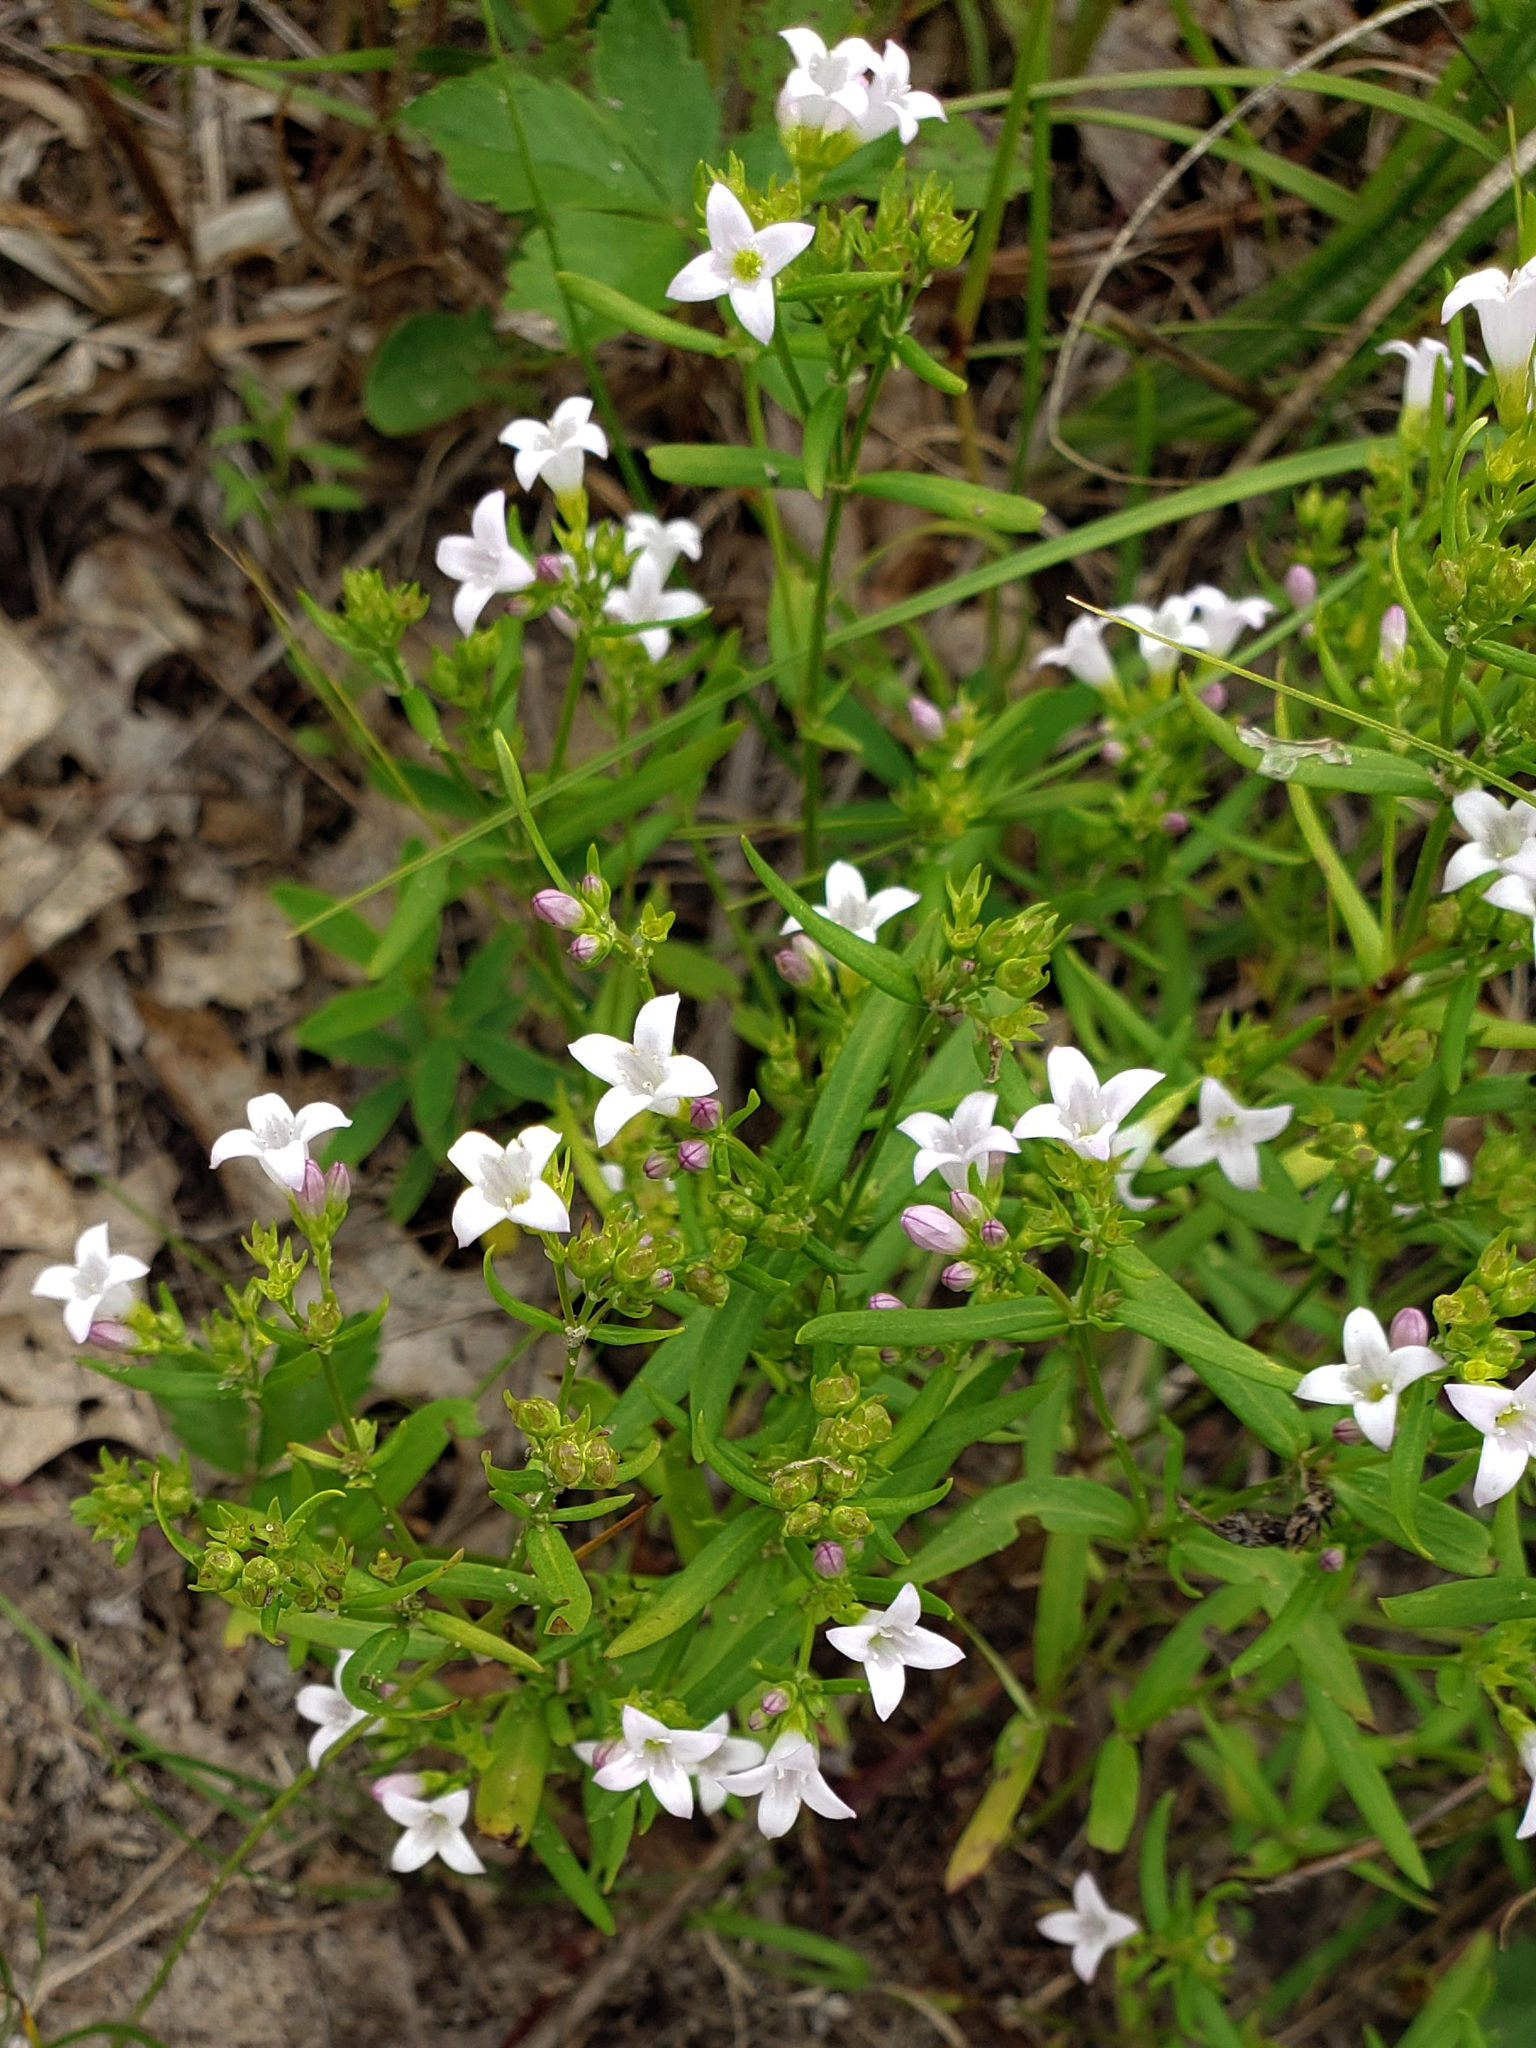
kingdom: Plantae
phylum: Tracheophyta
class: Magnoliopsida
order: Gentianales
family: Rubiaceae
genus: Houstonia
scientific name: Houstonia longifolia
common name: Long-leaved bluets
